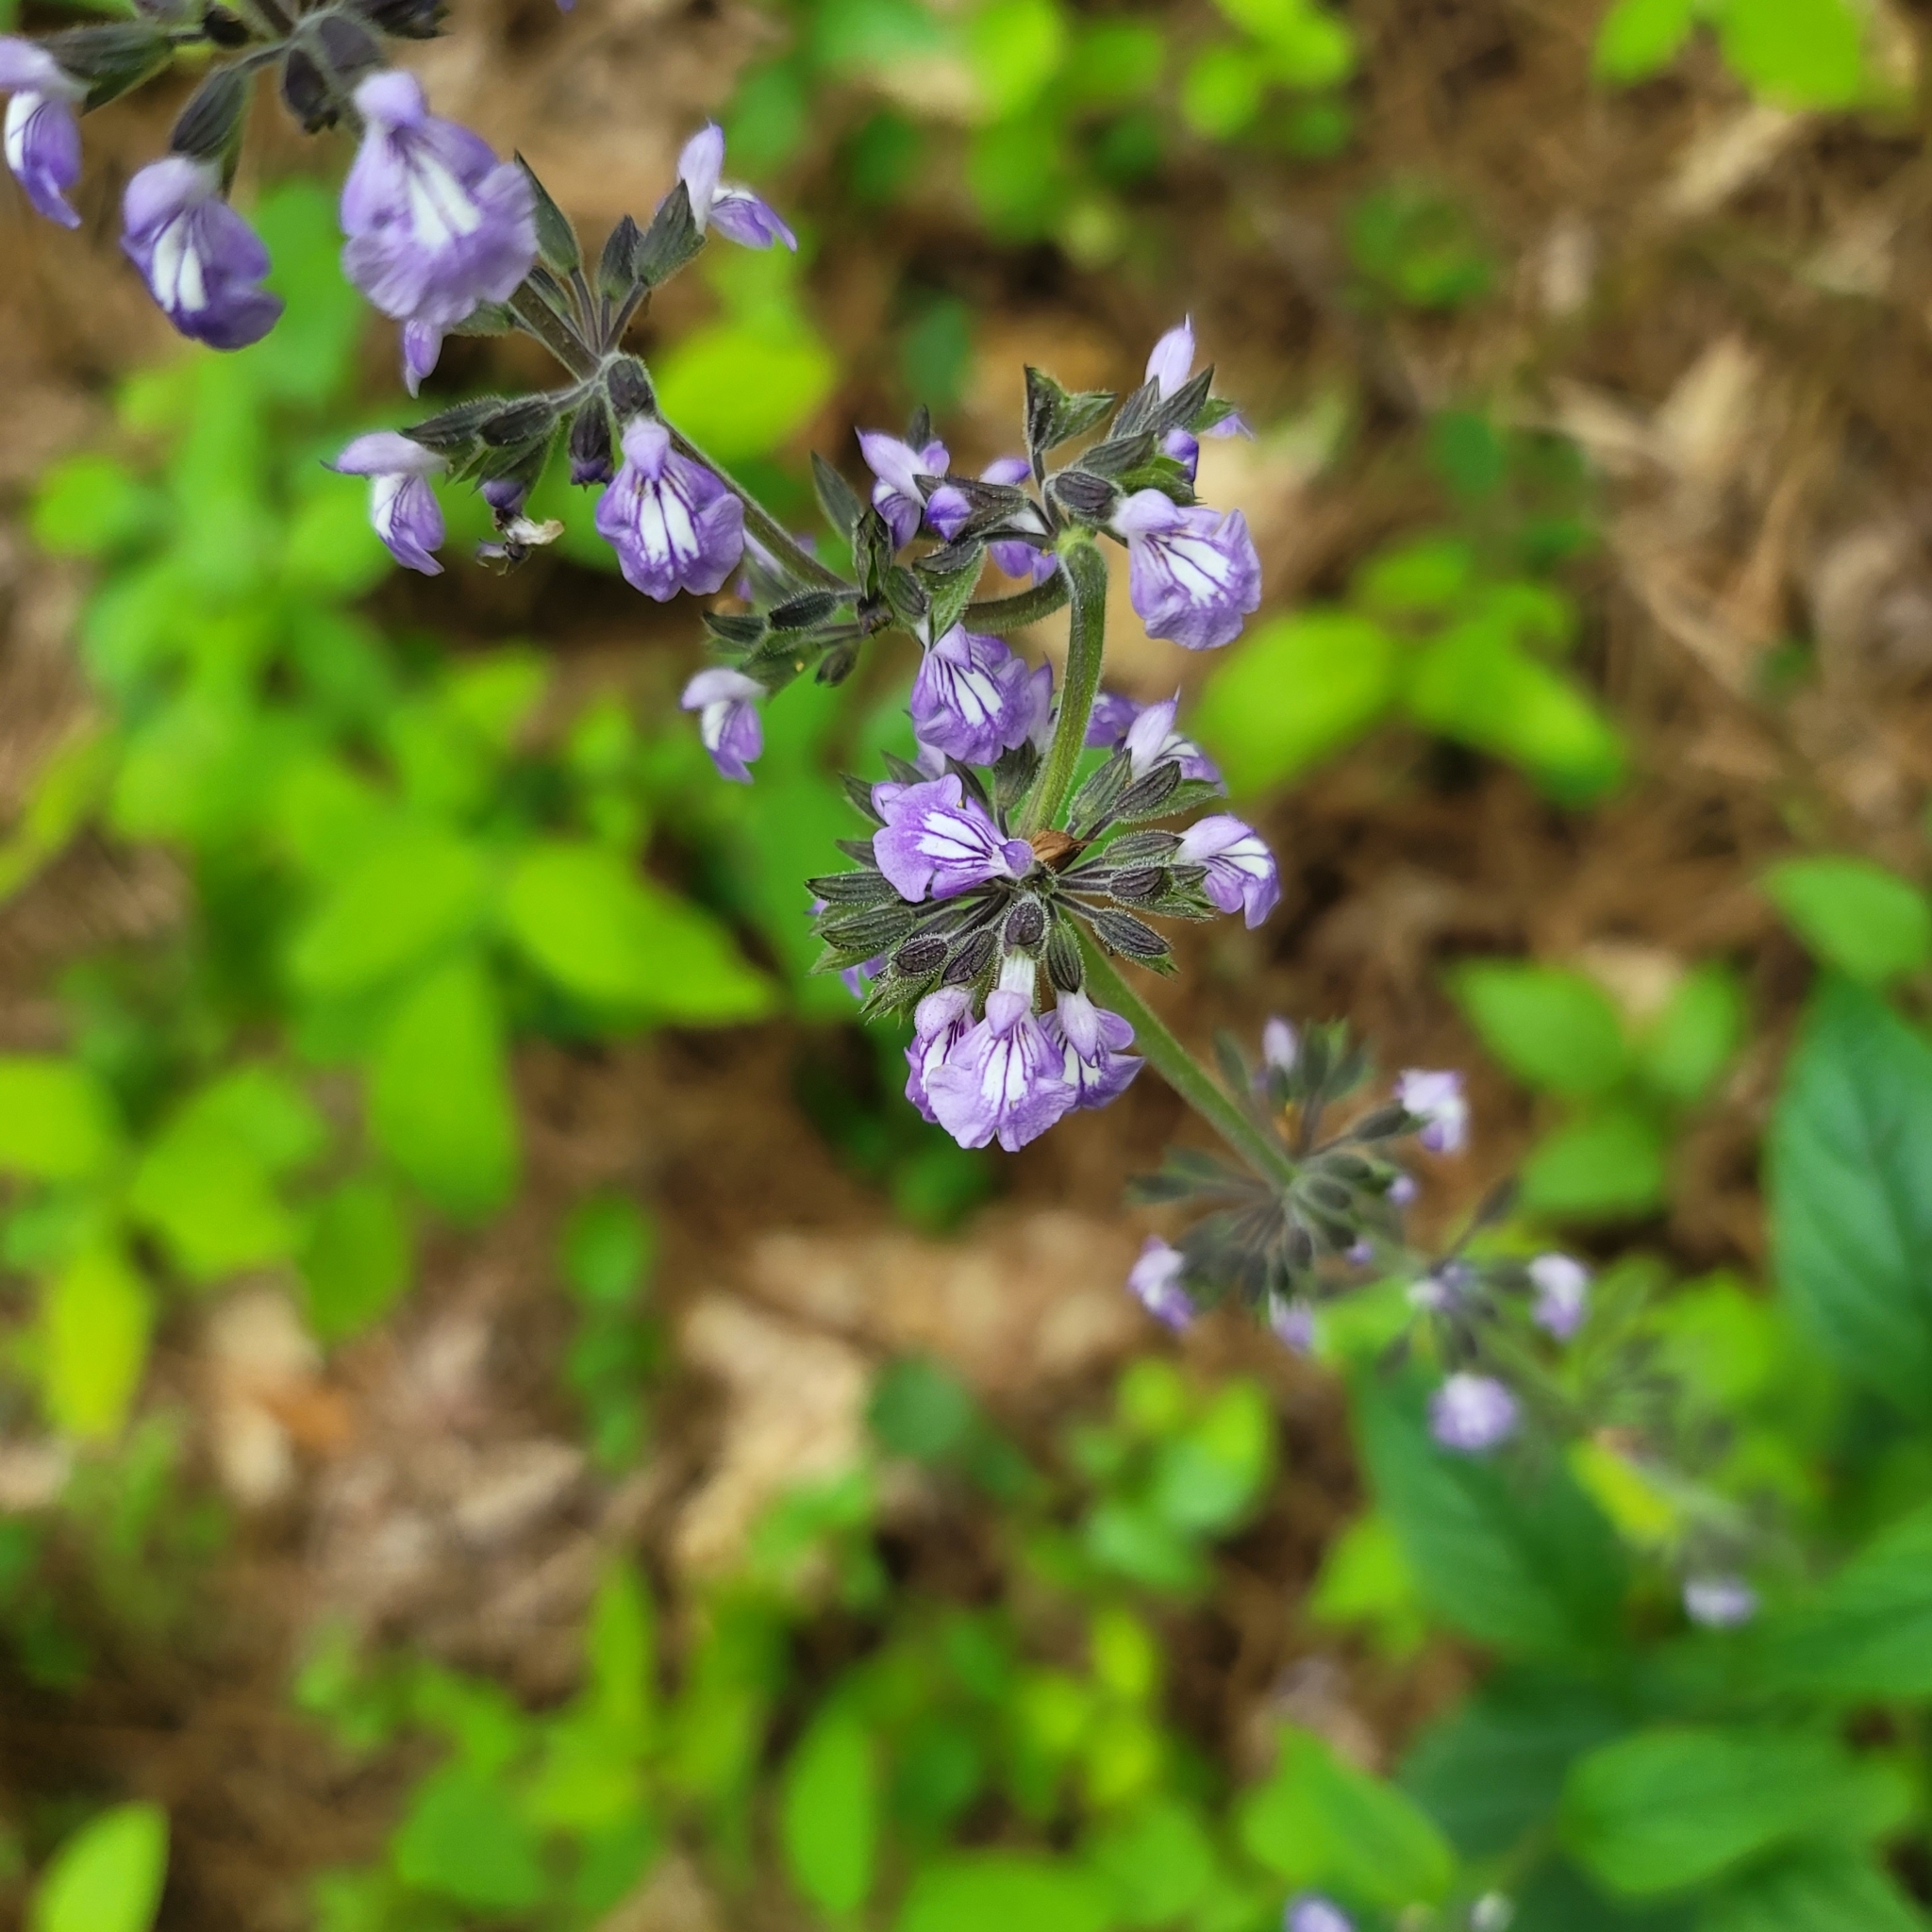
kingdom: Plantae
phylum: Tracheophyta
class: Magnoliopsida
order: Lamiales
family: Lamiaceae
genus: Salvia
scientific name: Salvia urticifolia
